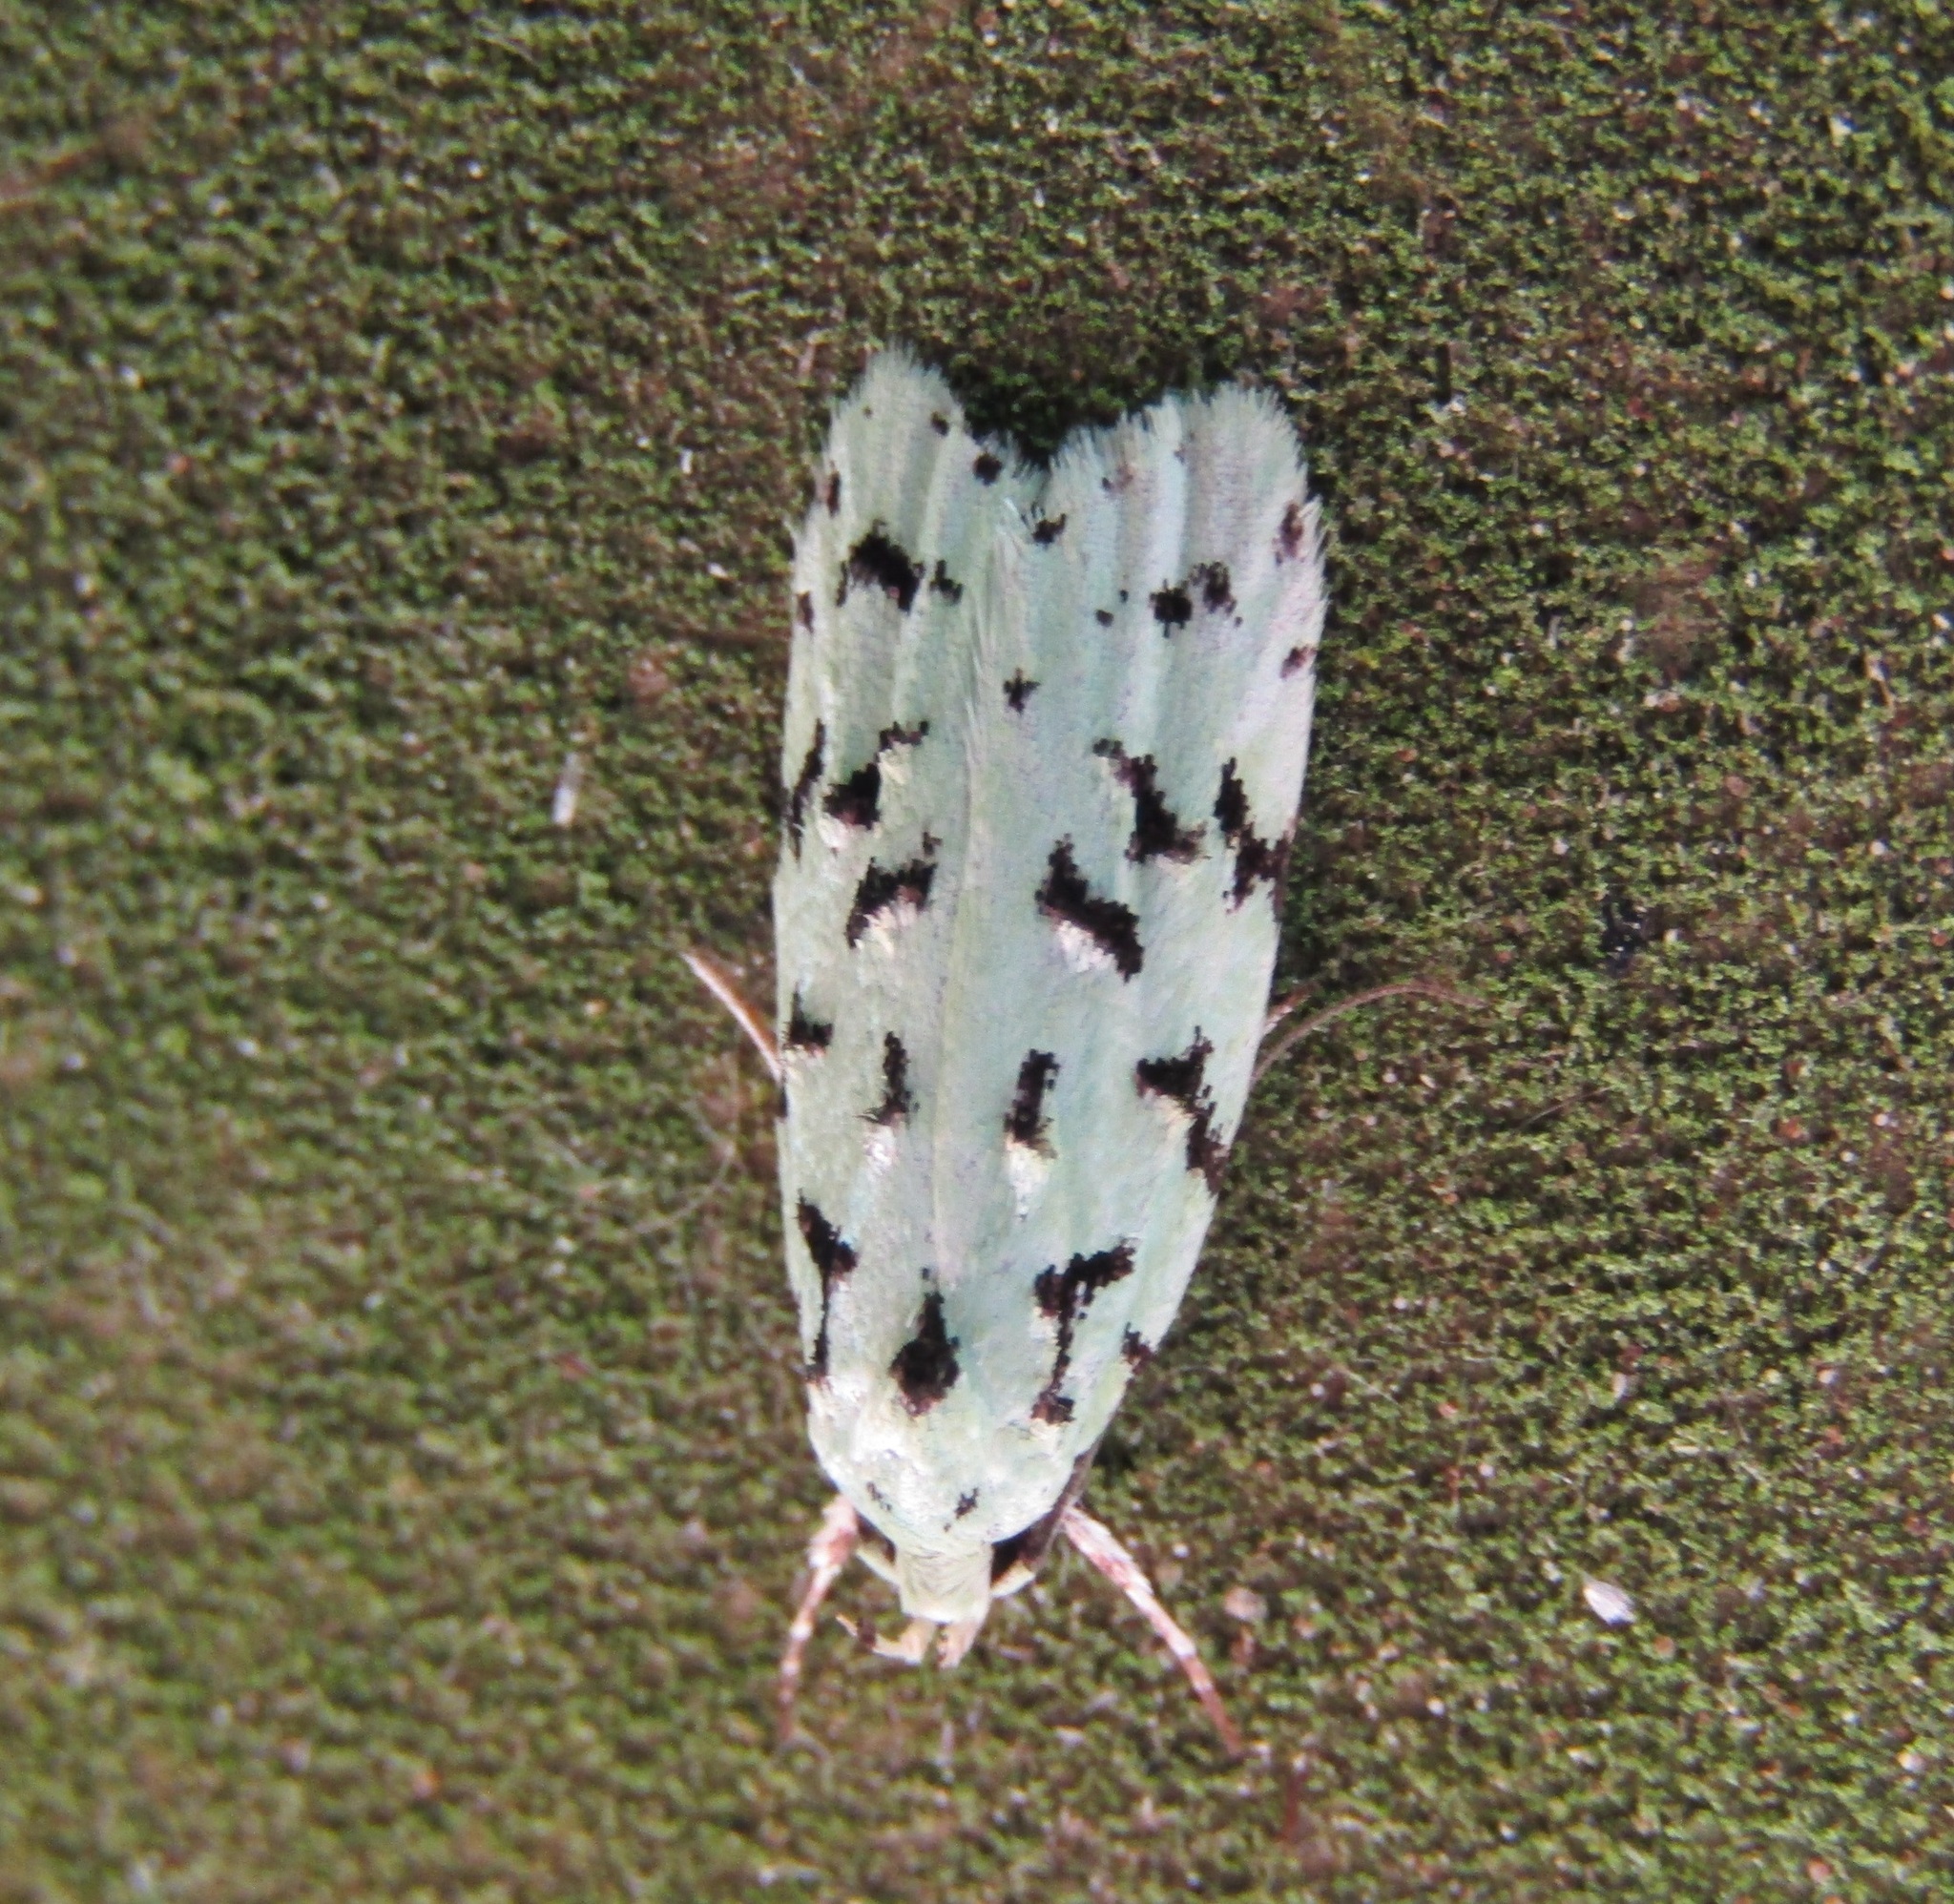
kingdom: Animalia
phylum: Arthropoda
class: Insecta
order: Lepidoptera
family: Oecophoridae
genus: Izatha
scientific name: Izatha peroneanella
